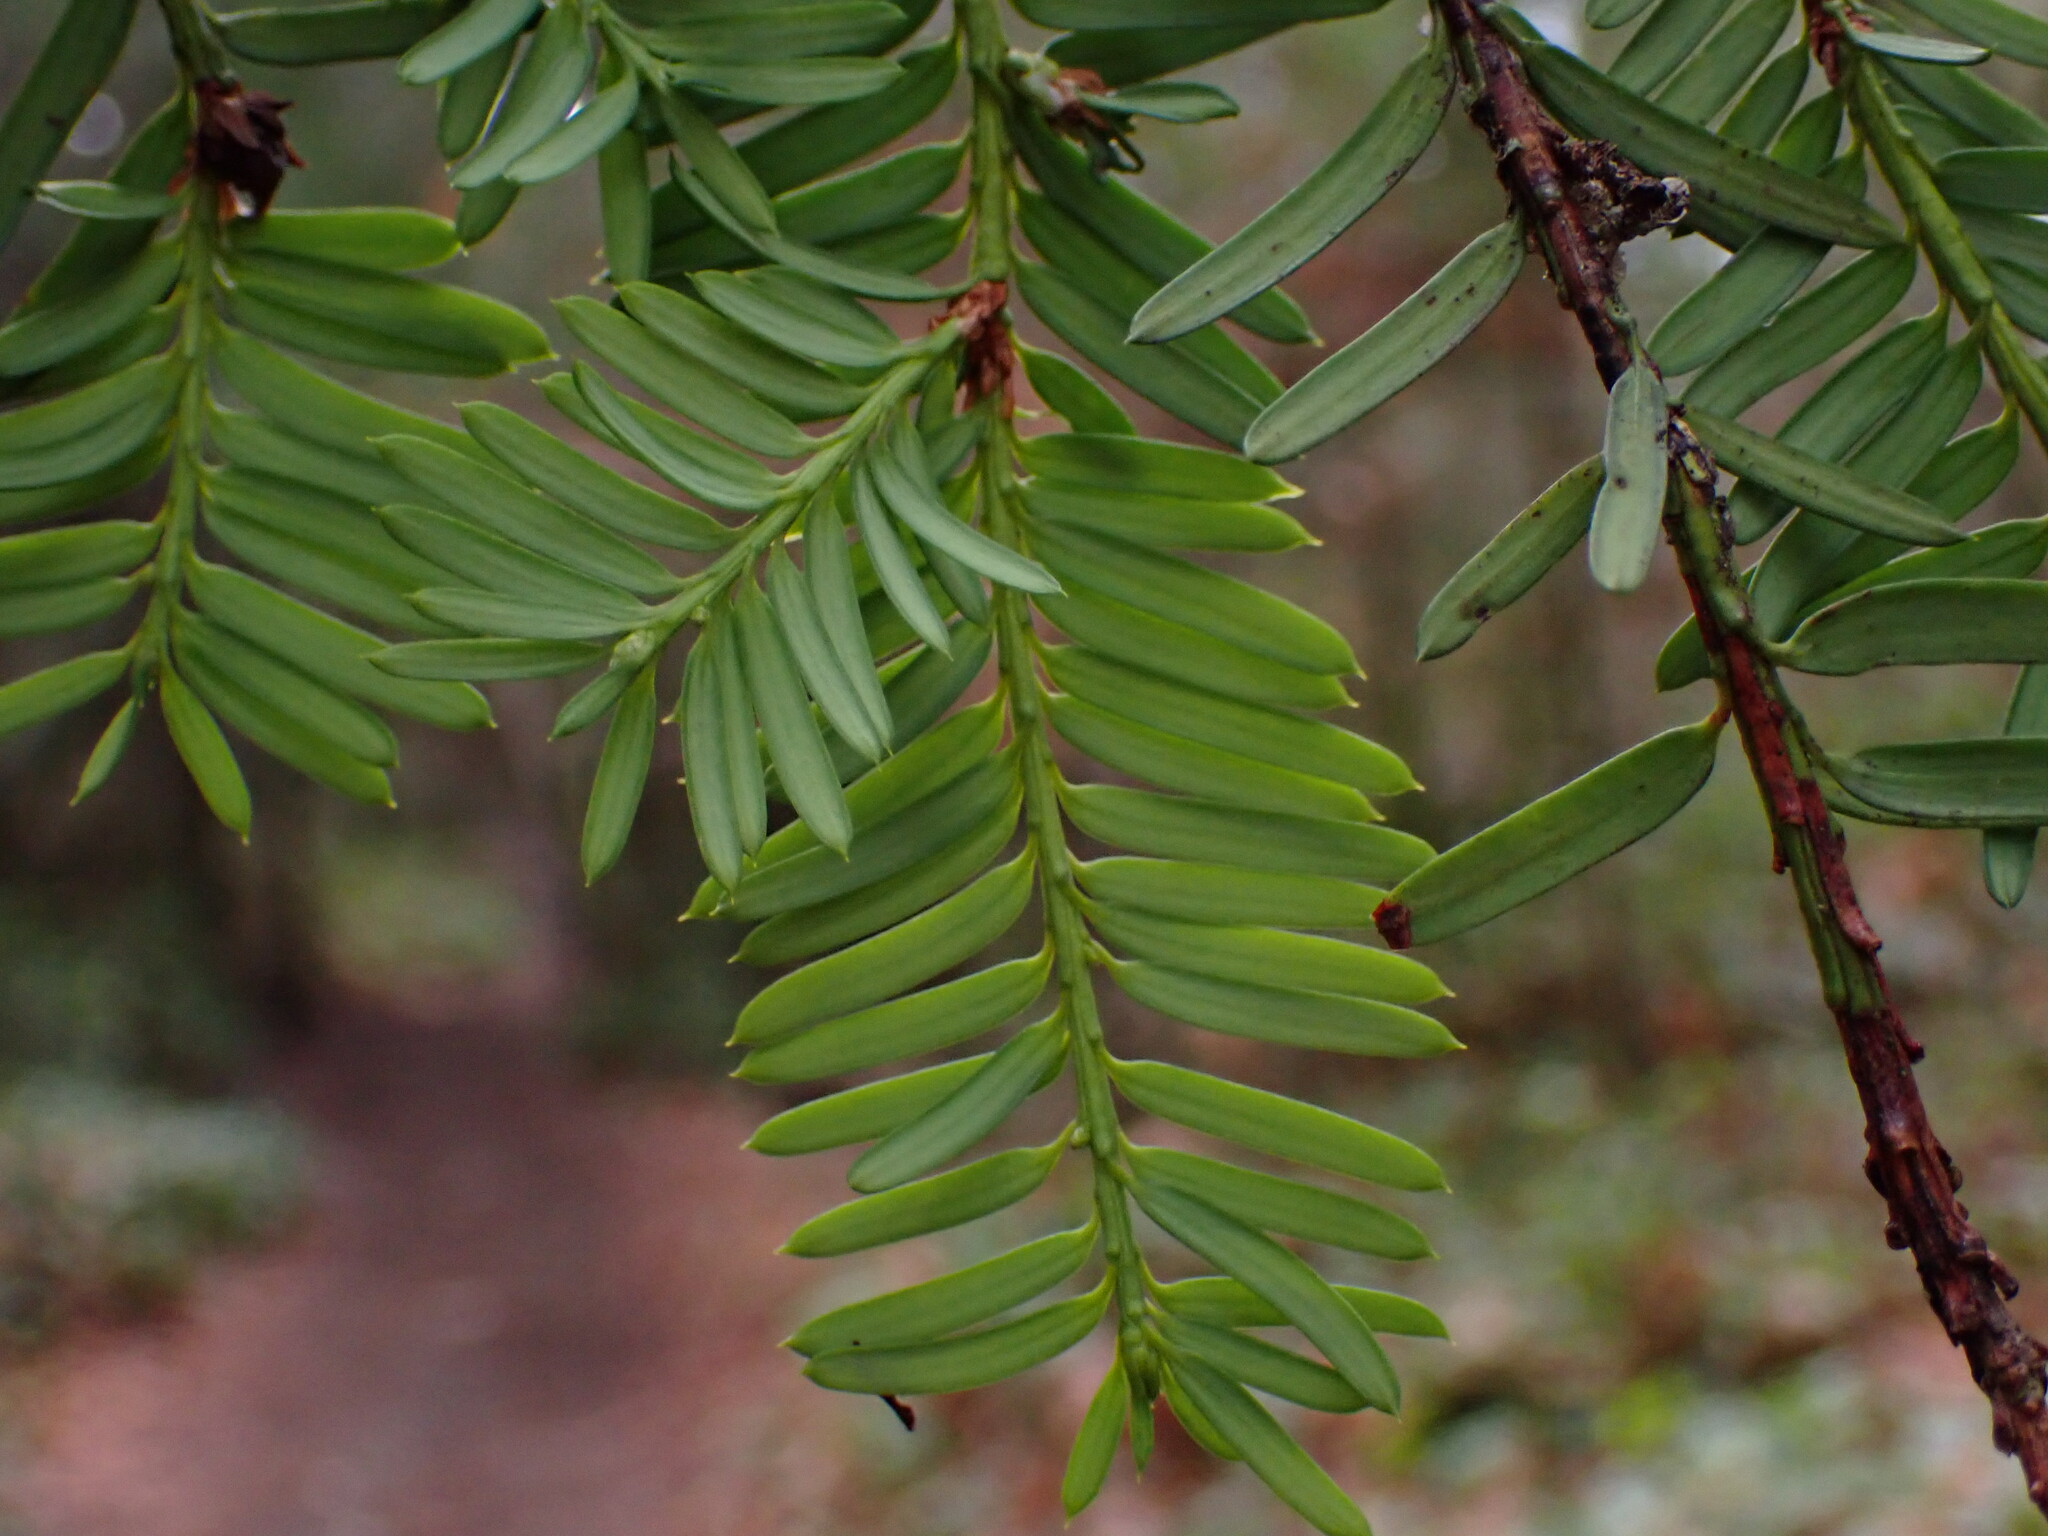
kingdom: Plantae
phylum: Tracheophyta
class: Pinopsida
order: Pinales
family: Taxaceae
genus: Taxus
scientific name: Taxus brevifolia
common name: Pacific yew
